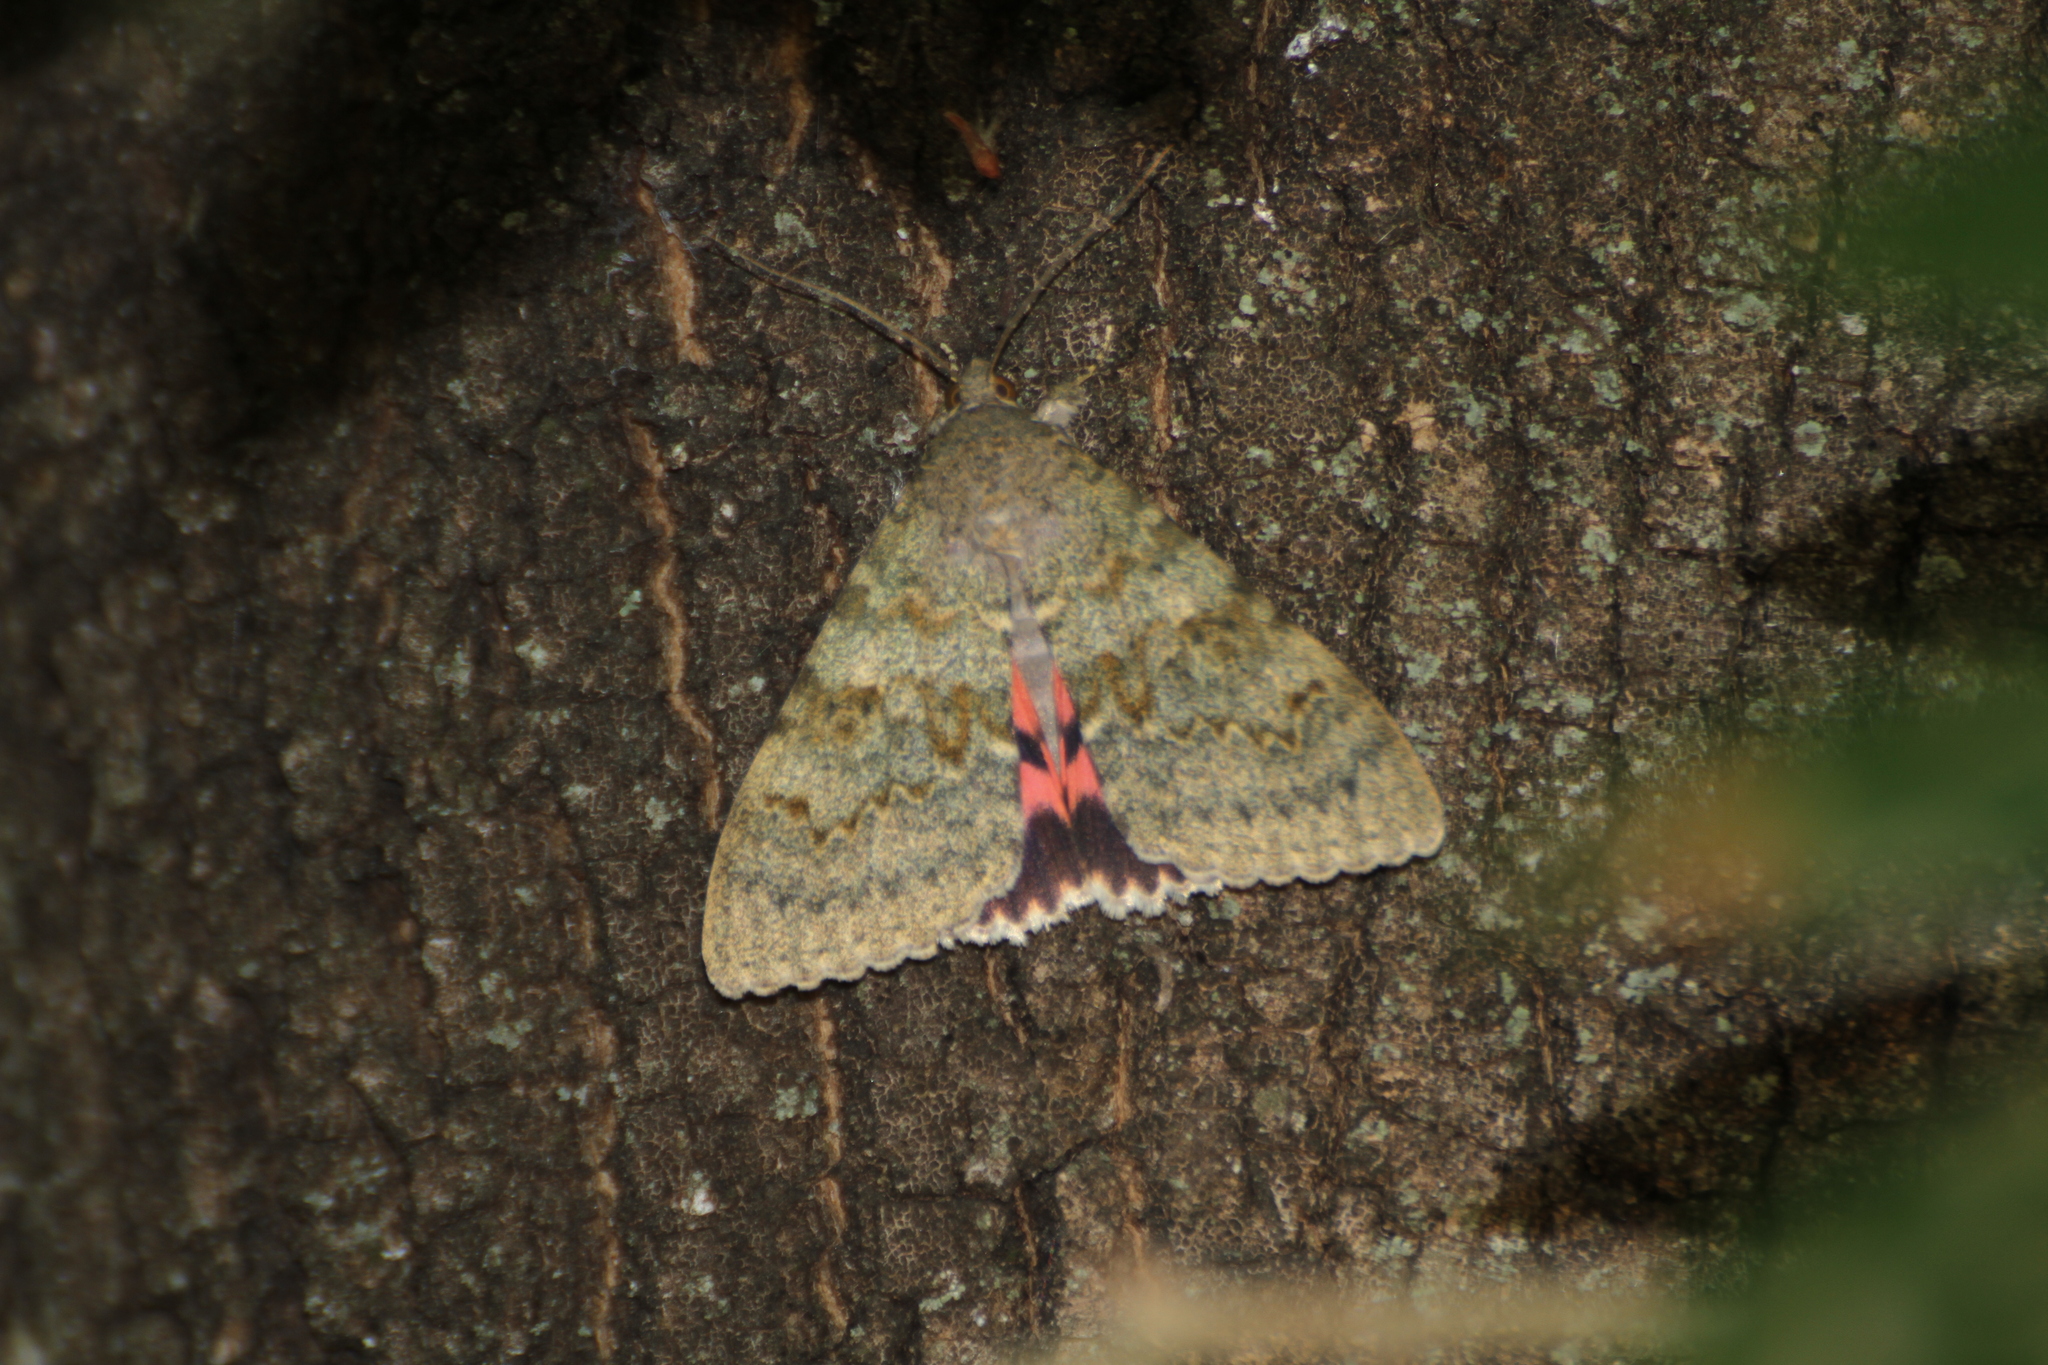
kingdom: Animalia
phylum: Arthropoda
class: Insecta
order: Lepidoptera
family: Erebidae
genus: Catocala
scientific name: Catocala elocata
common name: French red underwing
